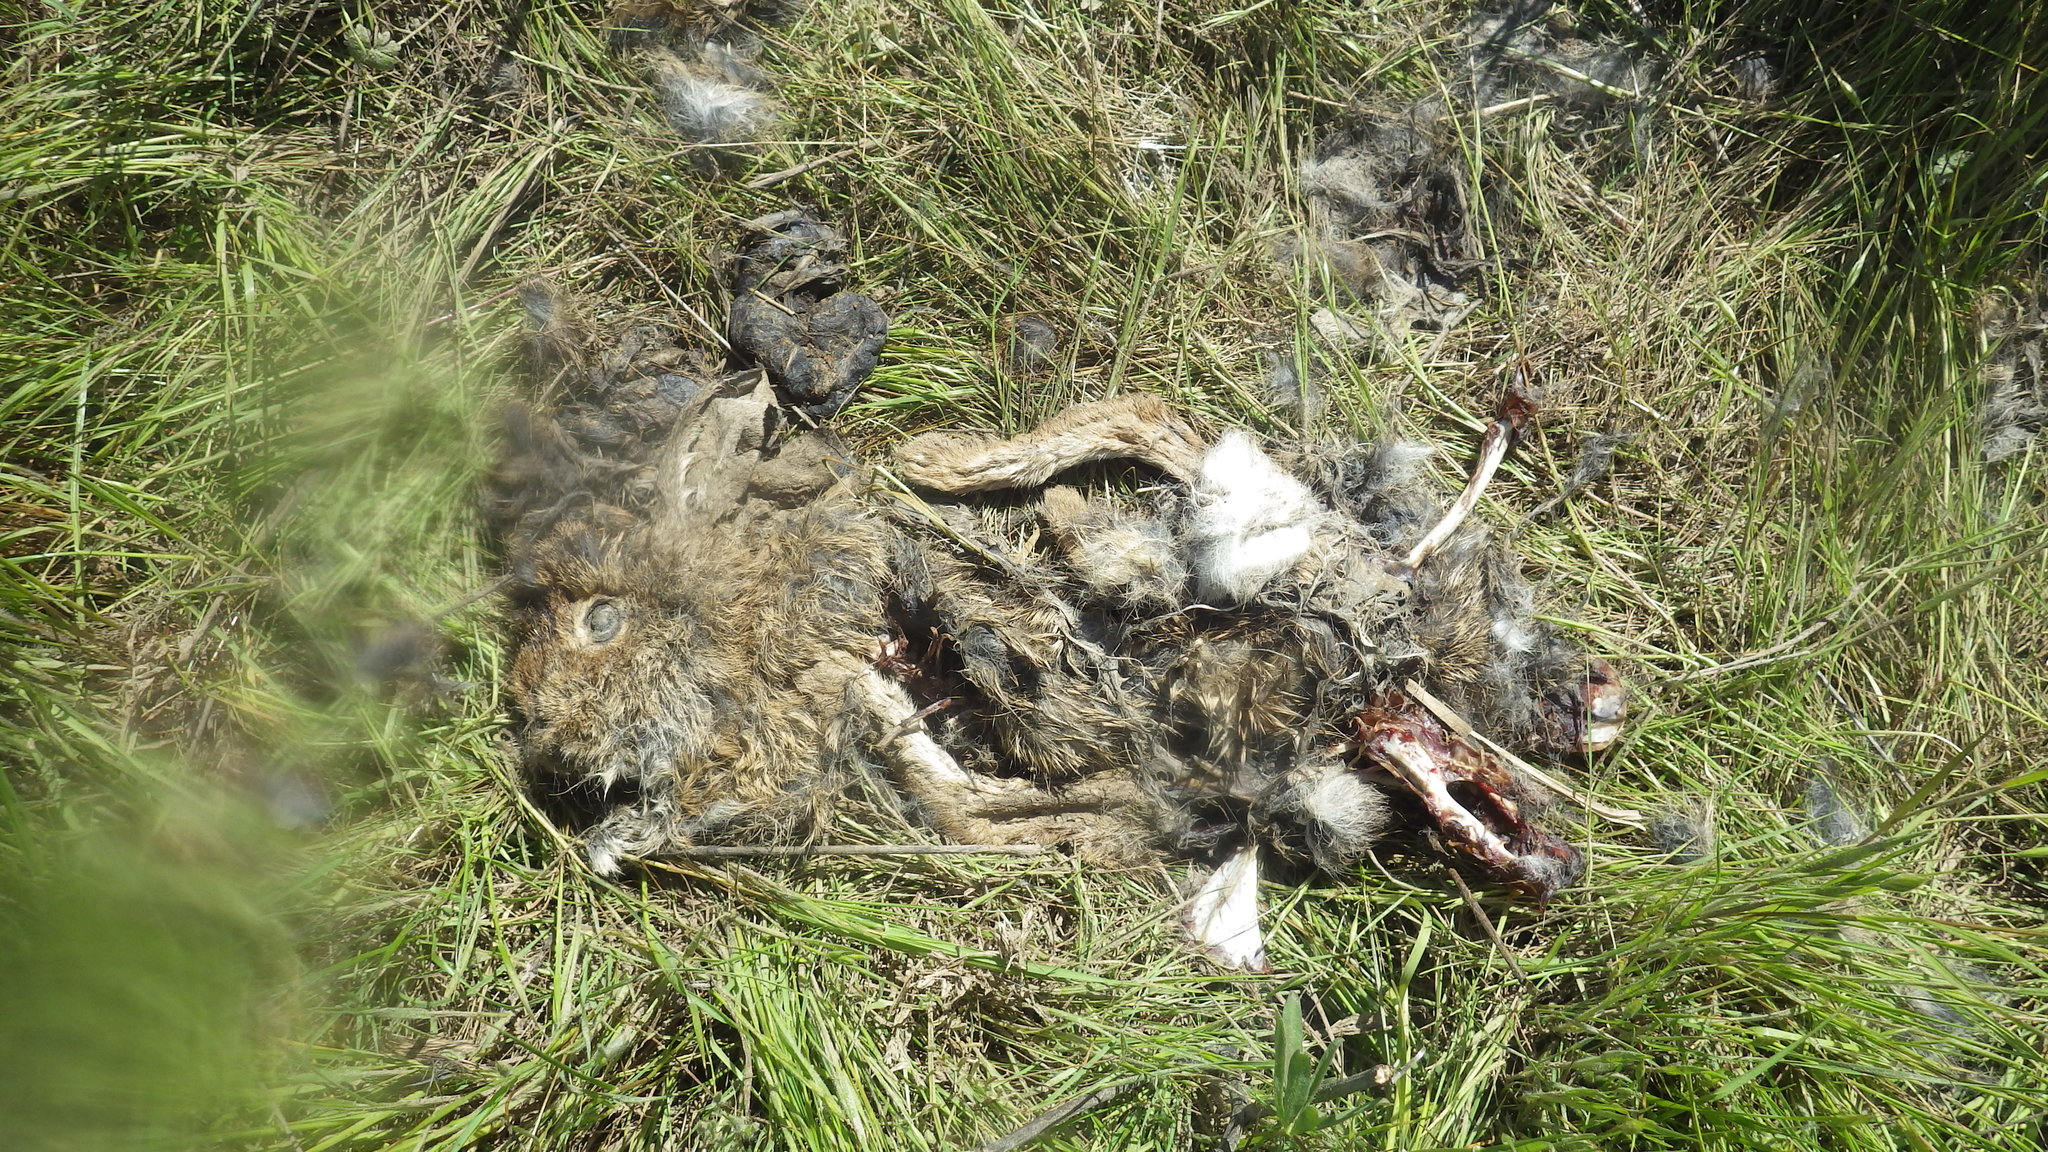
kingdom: Animalia
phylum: Chordata
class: Mammalia
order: Lagomorpha
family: Leporidae
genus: Lepus
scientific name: Lepus californicus
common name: Black-tailed jackrabbit
